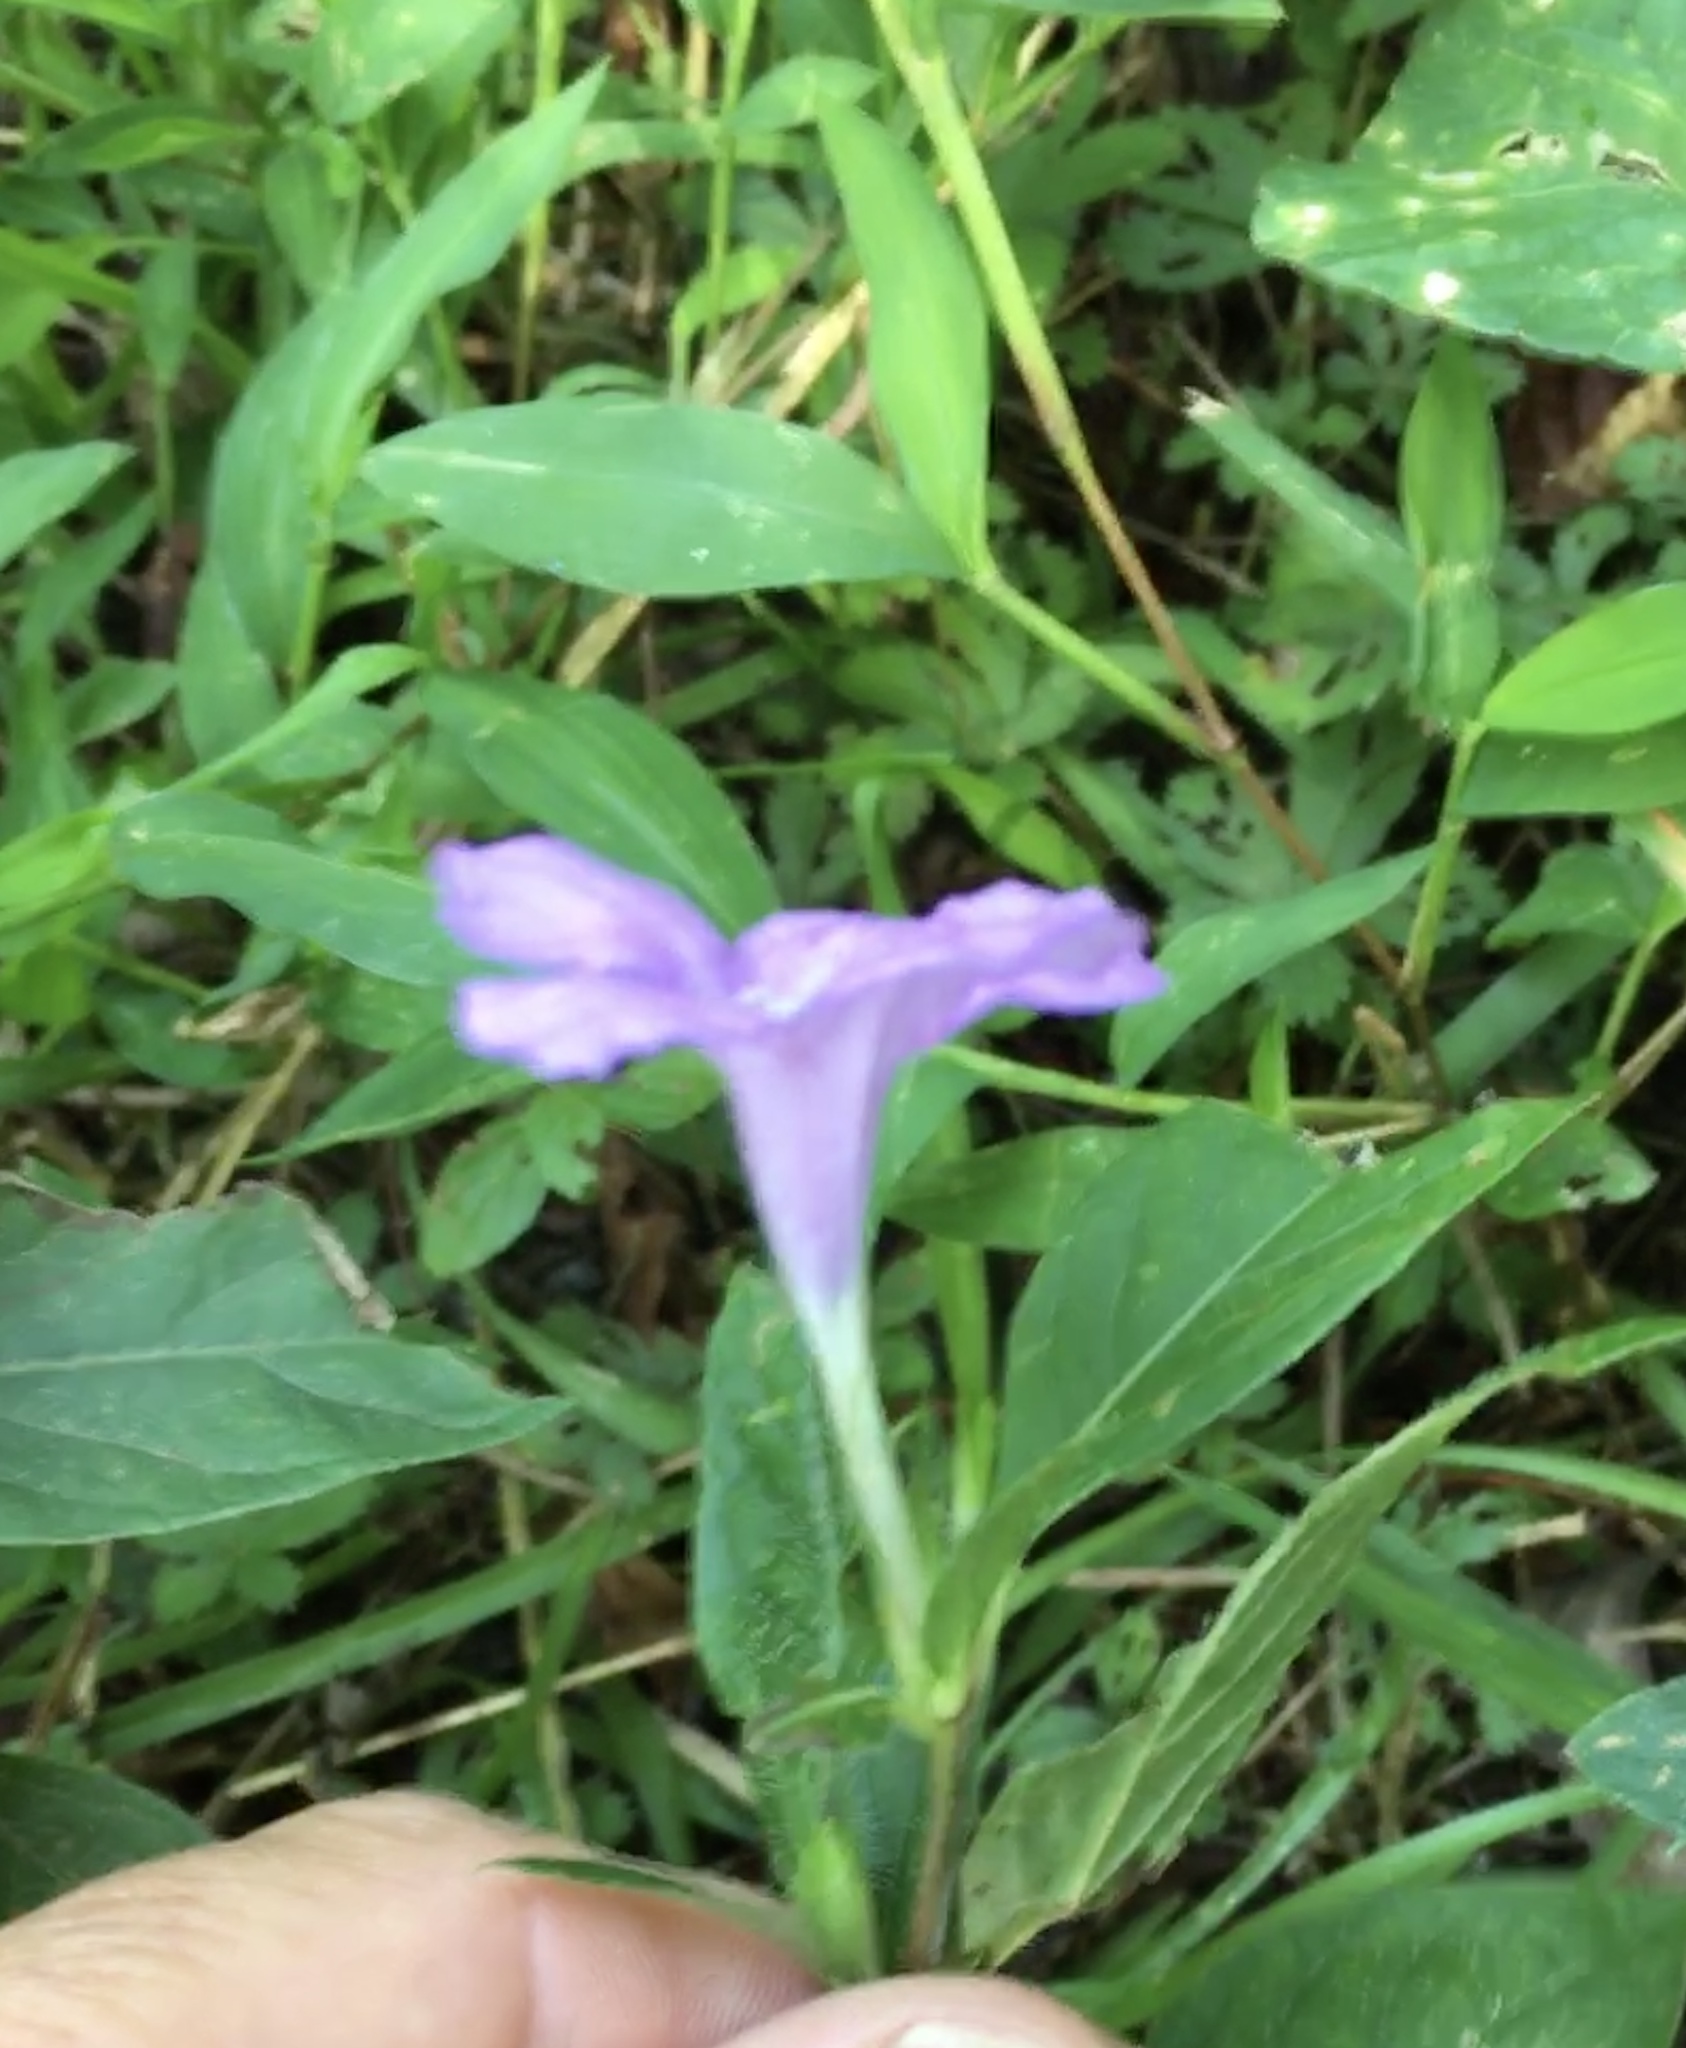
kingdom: Plantae
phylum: Tracheophyta
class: Magnoliopsida
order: Lamiales
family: Acanthaceae
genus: Ruellia
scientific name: Ruellia caroliniensis
